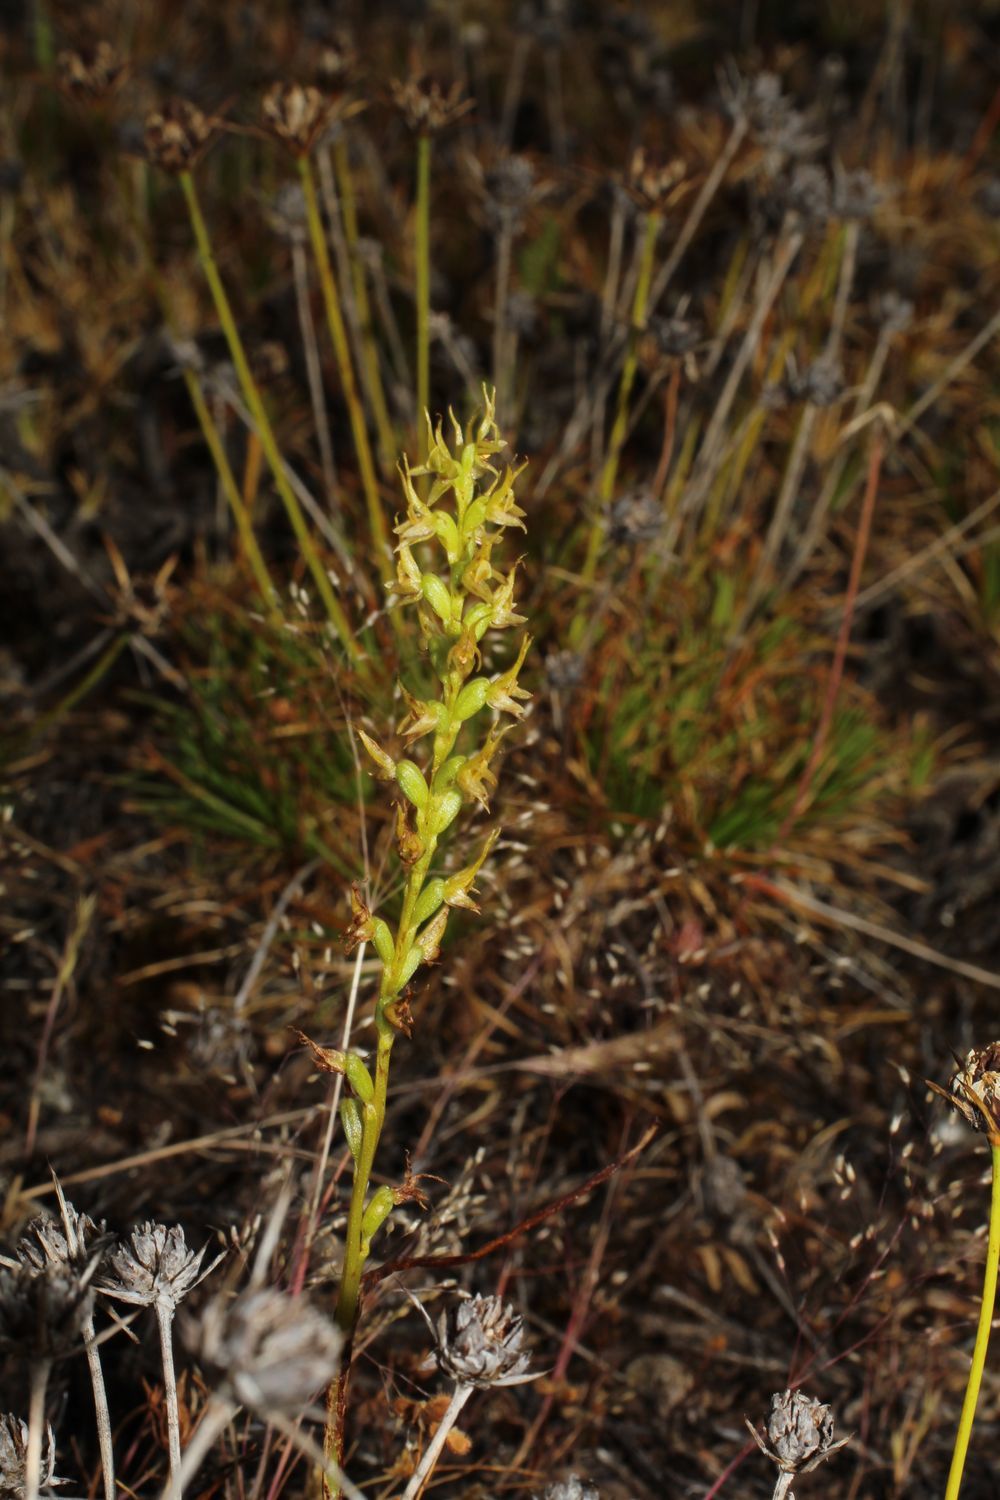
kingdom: Plantae
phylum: Tracheophyta
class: Liliopsida
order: Asparagales
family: Orchidaceae
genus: Prasophyllum
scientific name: Prasophyllum gracile
